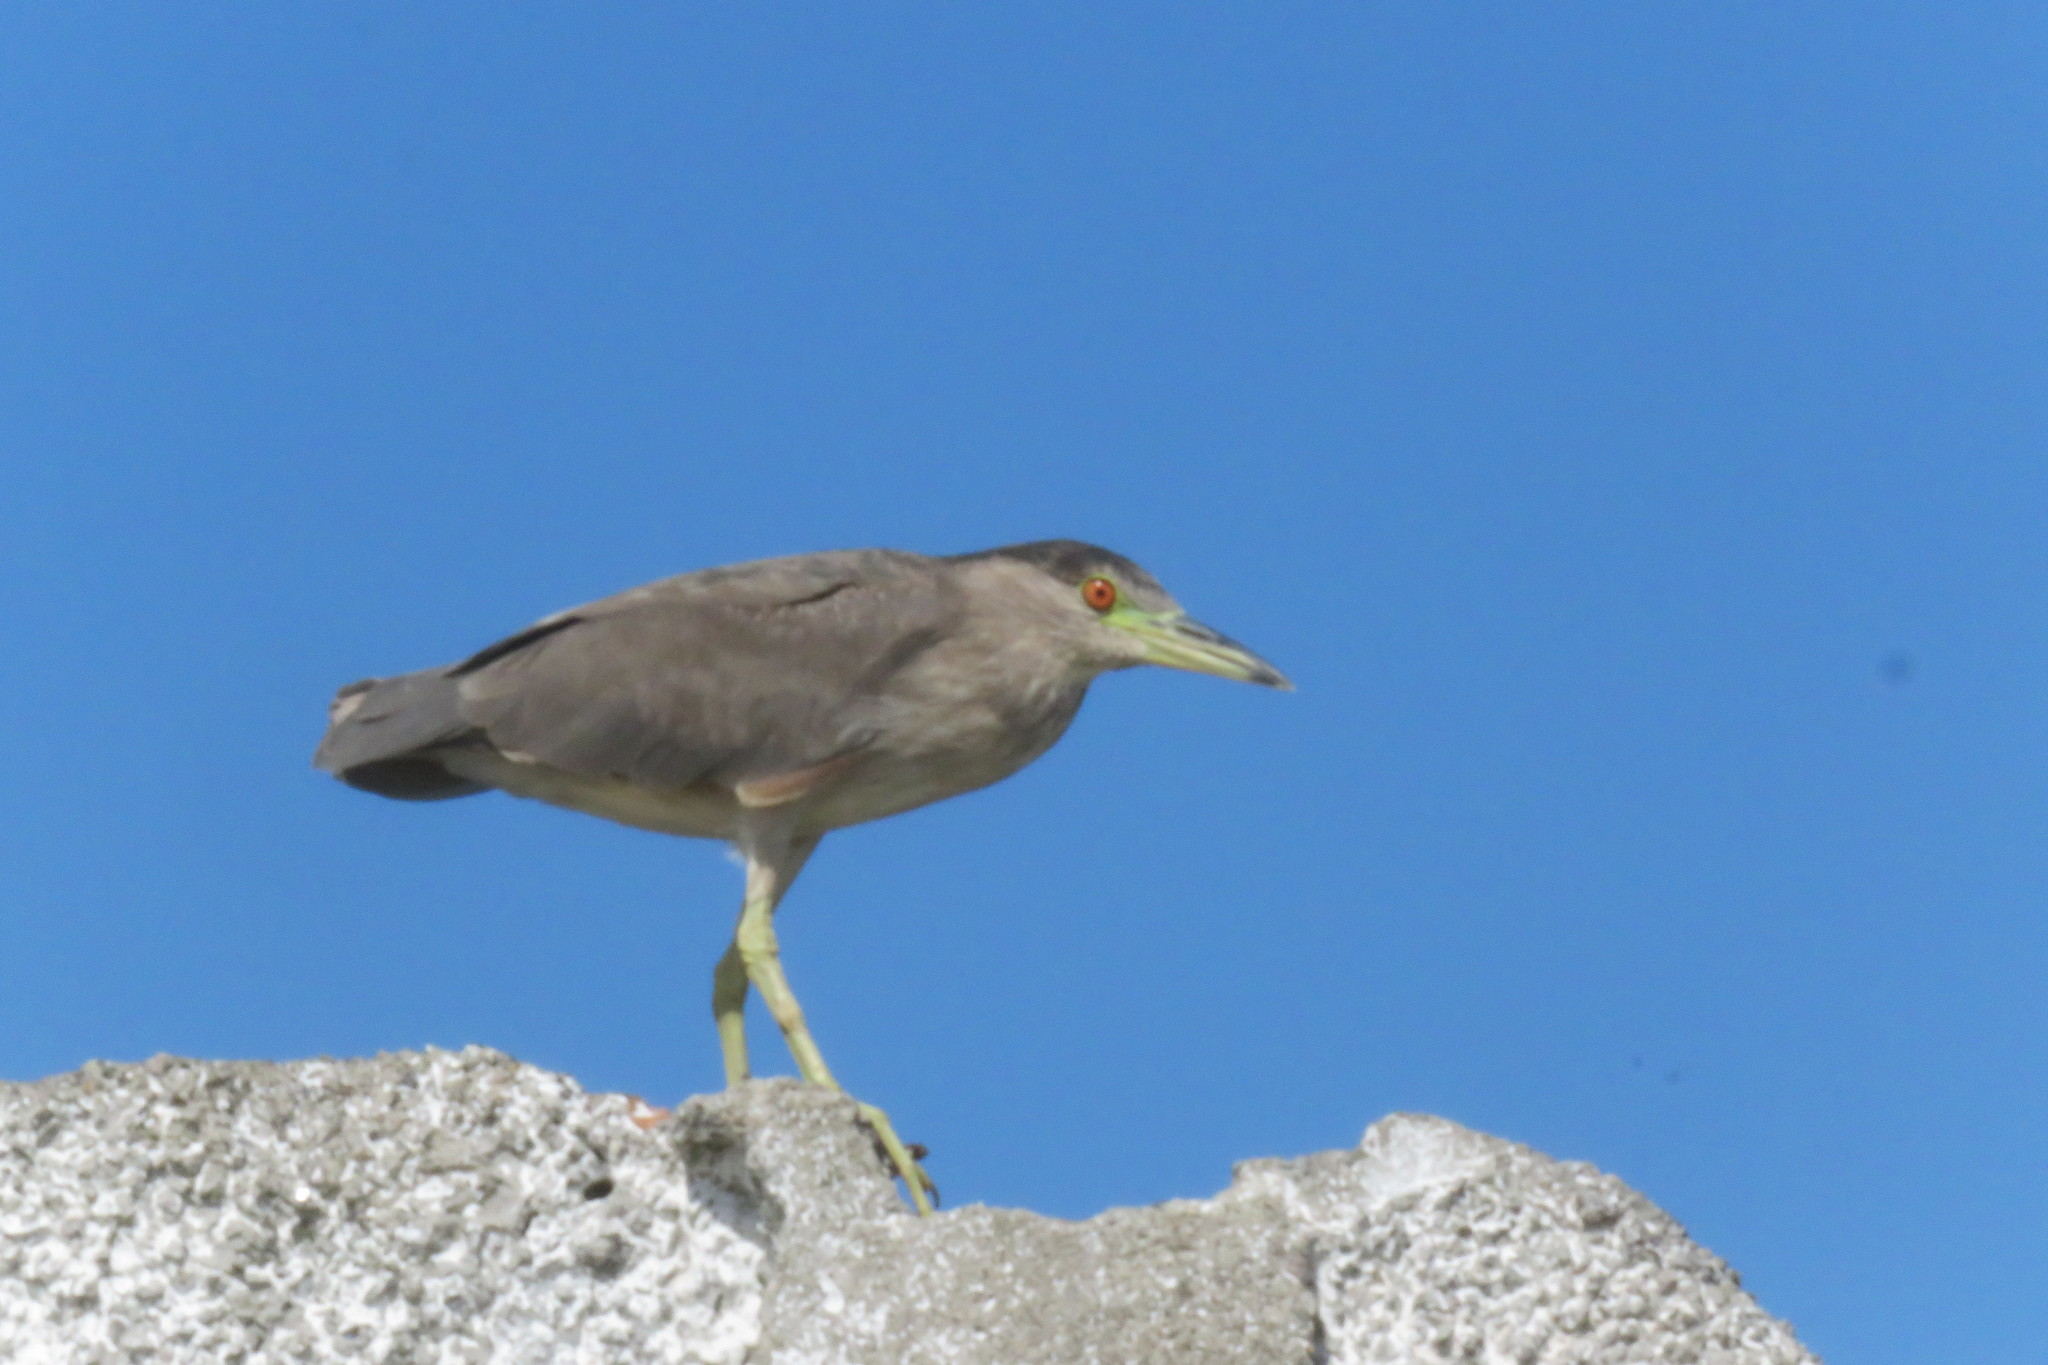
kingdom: Animalia
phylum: Chordata
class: Aves
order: Pelecaniformes
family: Ardeidae
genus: Nycticorax
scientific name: Nycticorax nycticorax
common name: Black-crowned night heron
